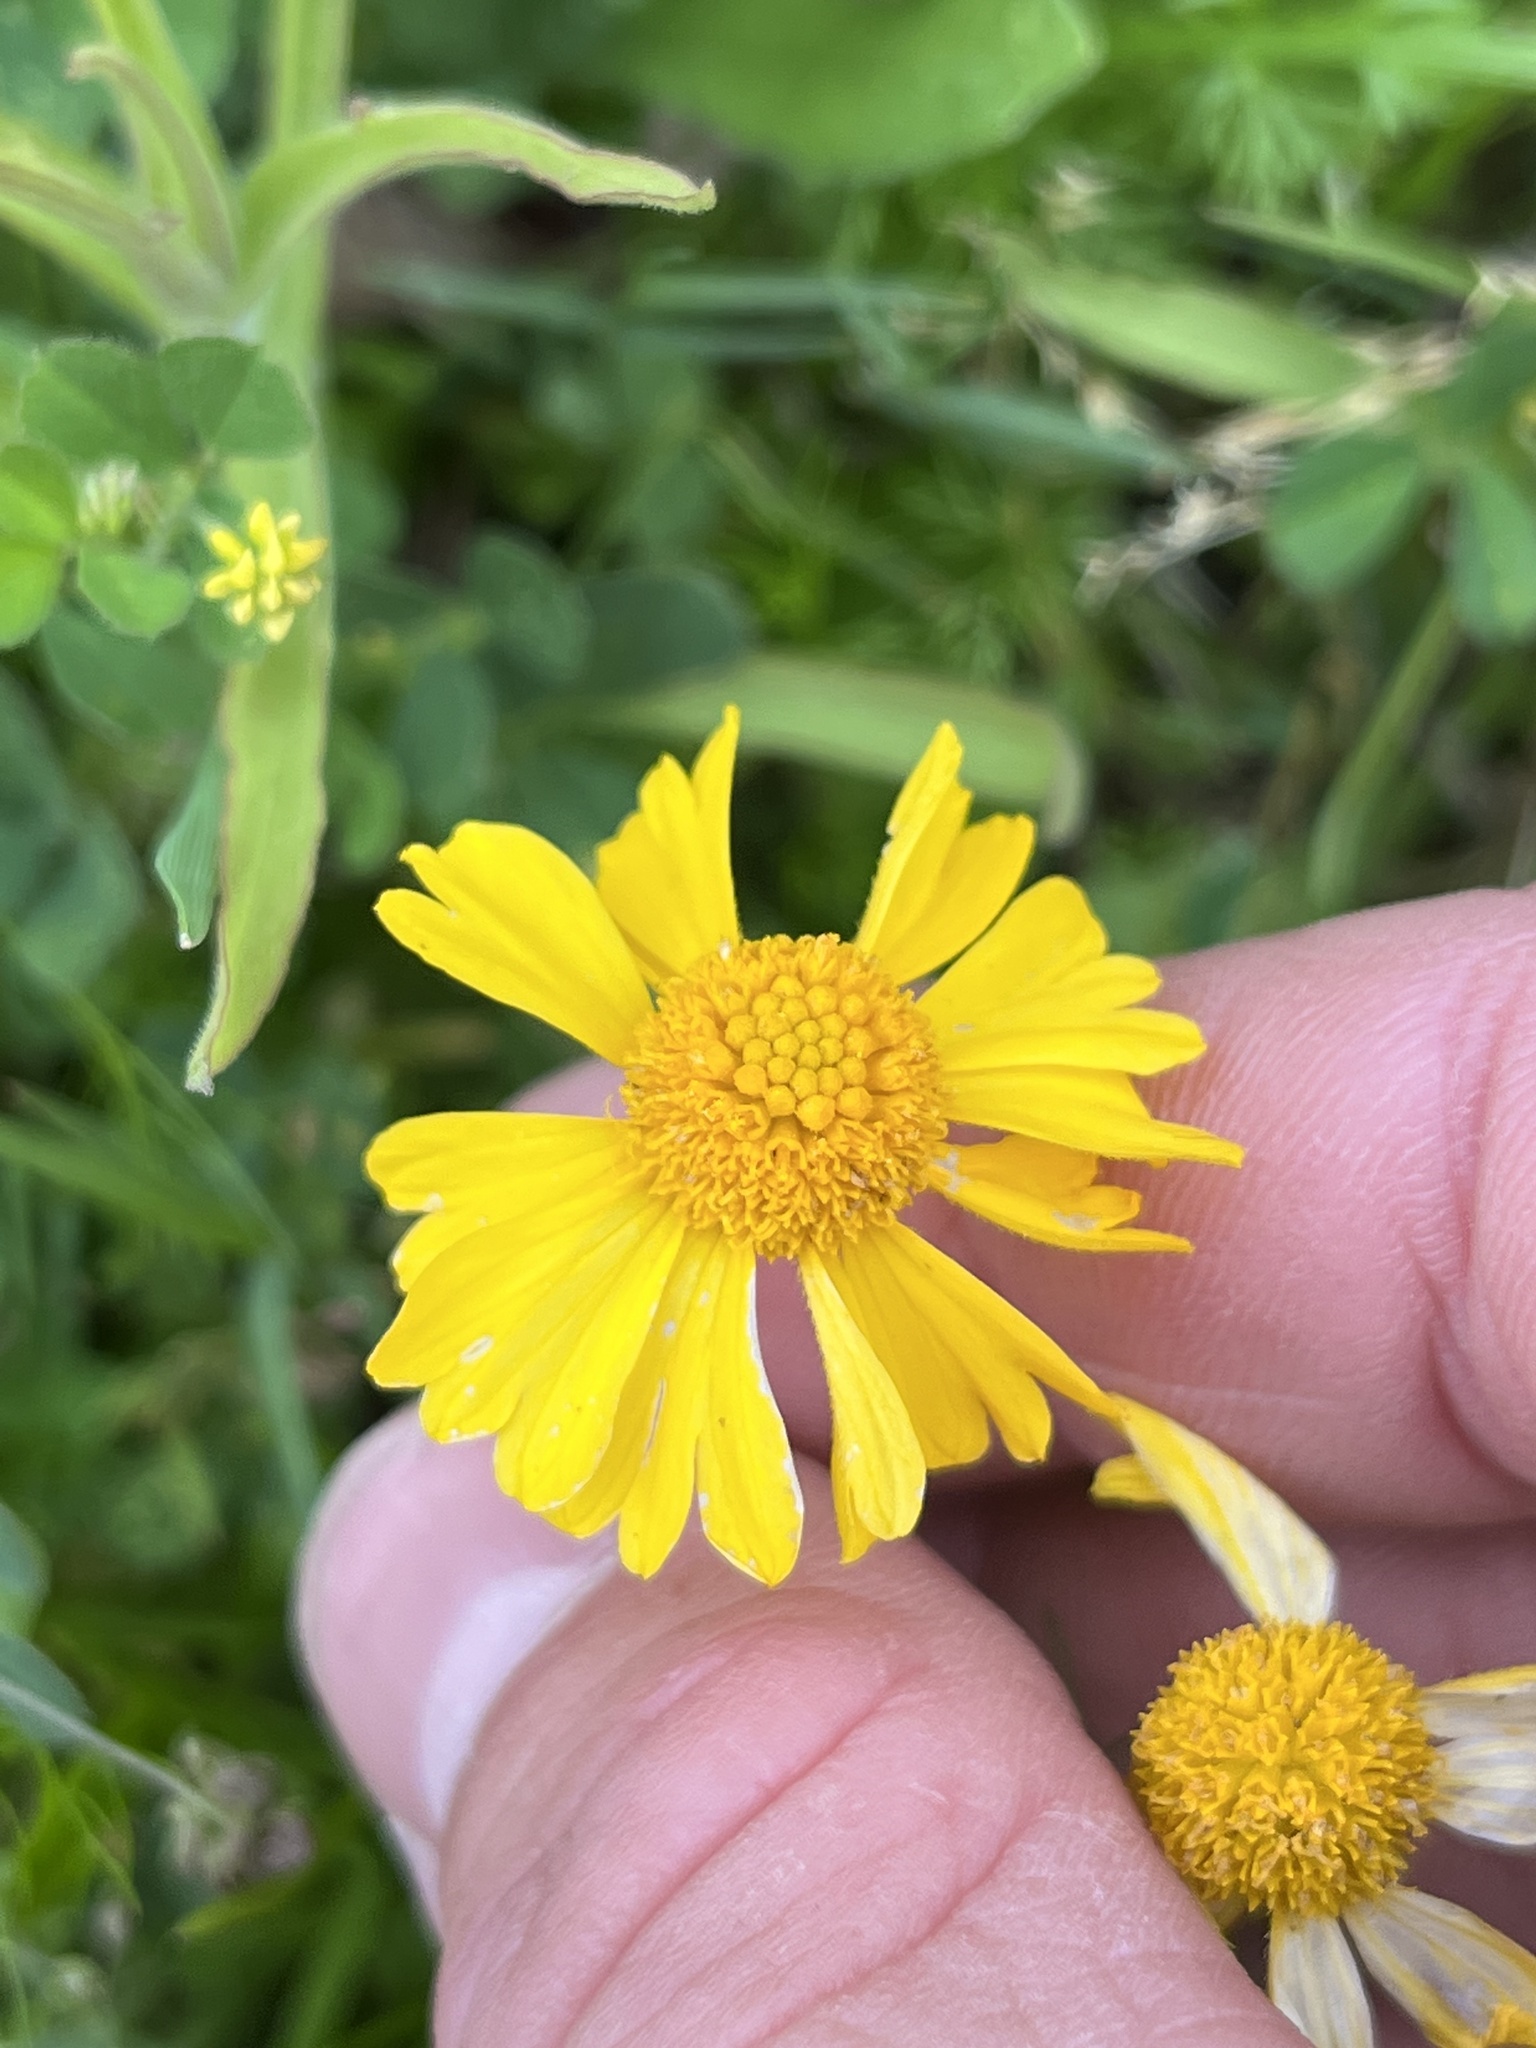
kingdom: Plantae
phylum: Tracheophyta
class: Magnoliopsida
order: Asterales
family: Asteraceae
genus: Helenium
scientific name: Helenium amarum
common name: Bitter sneezeweed
